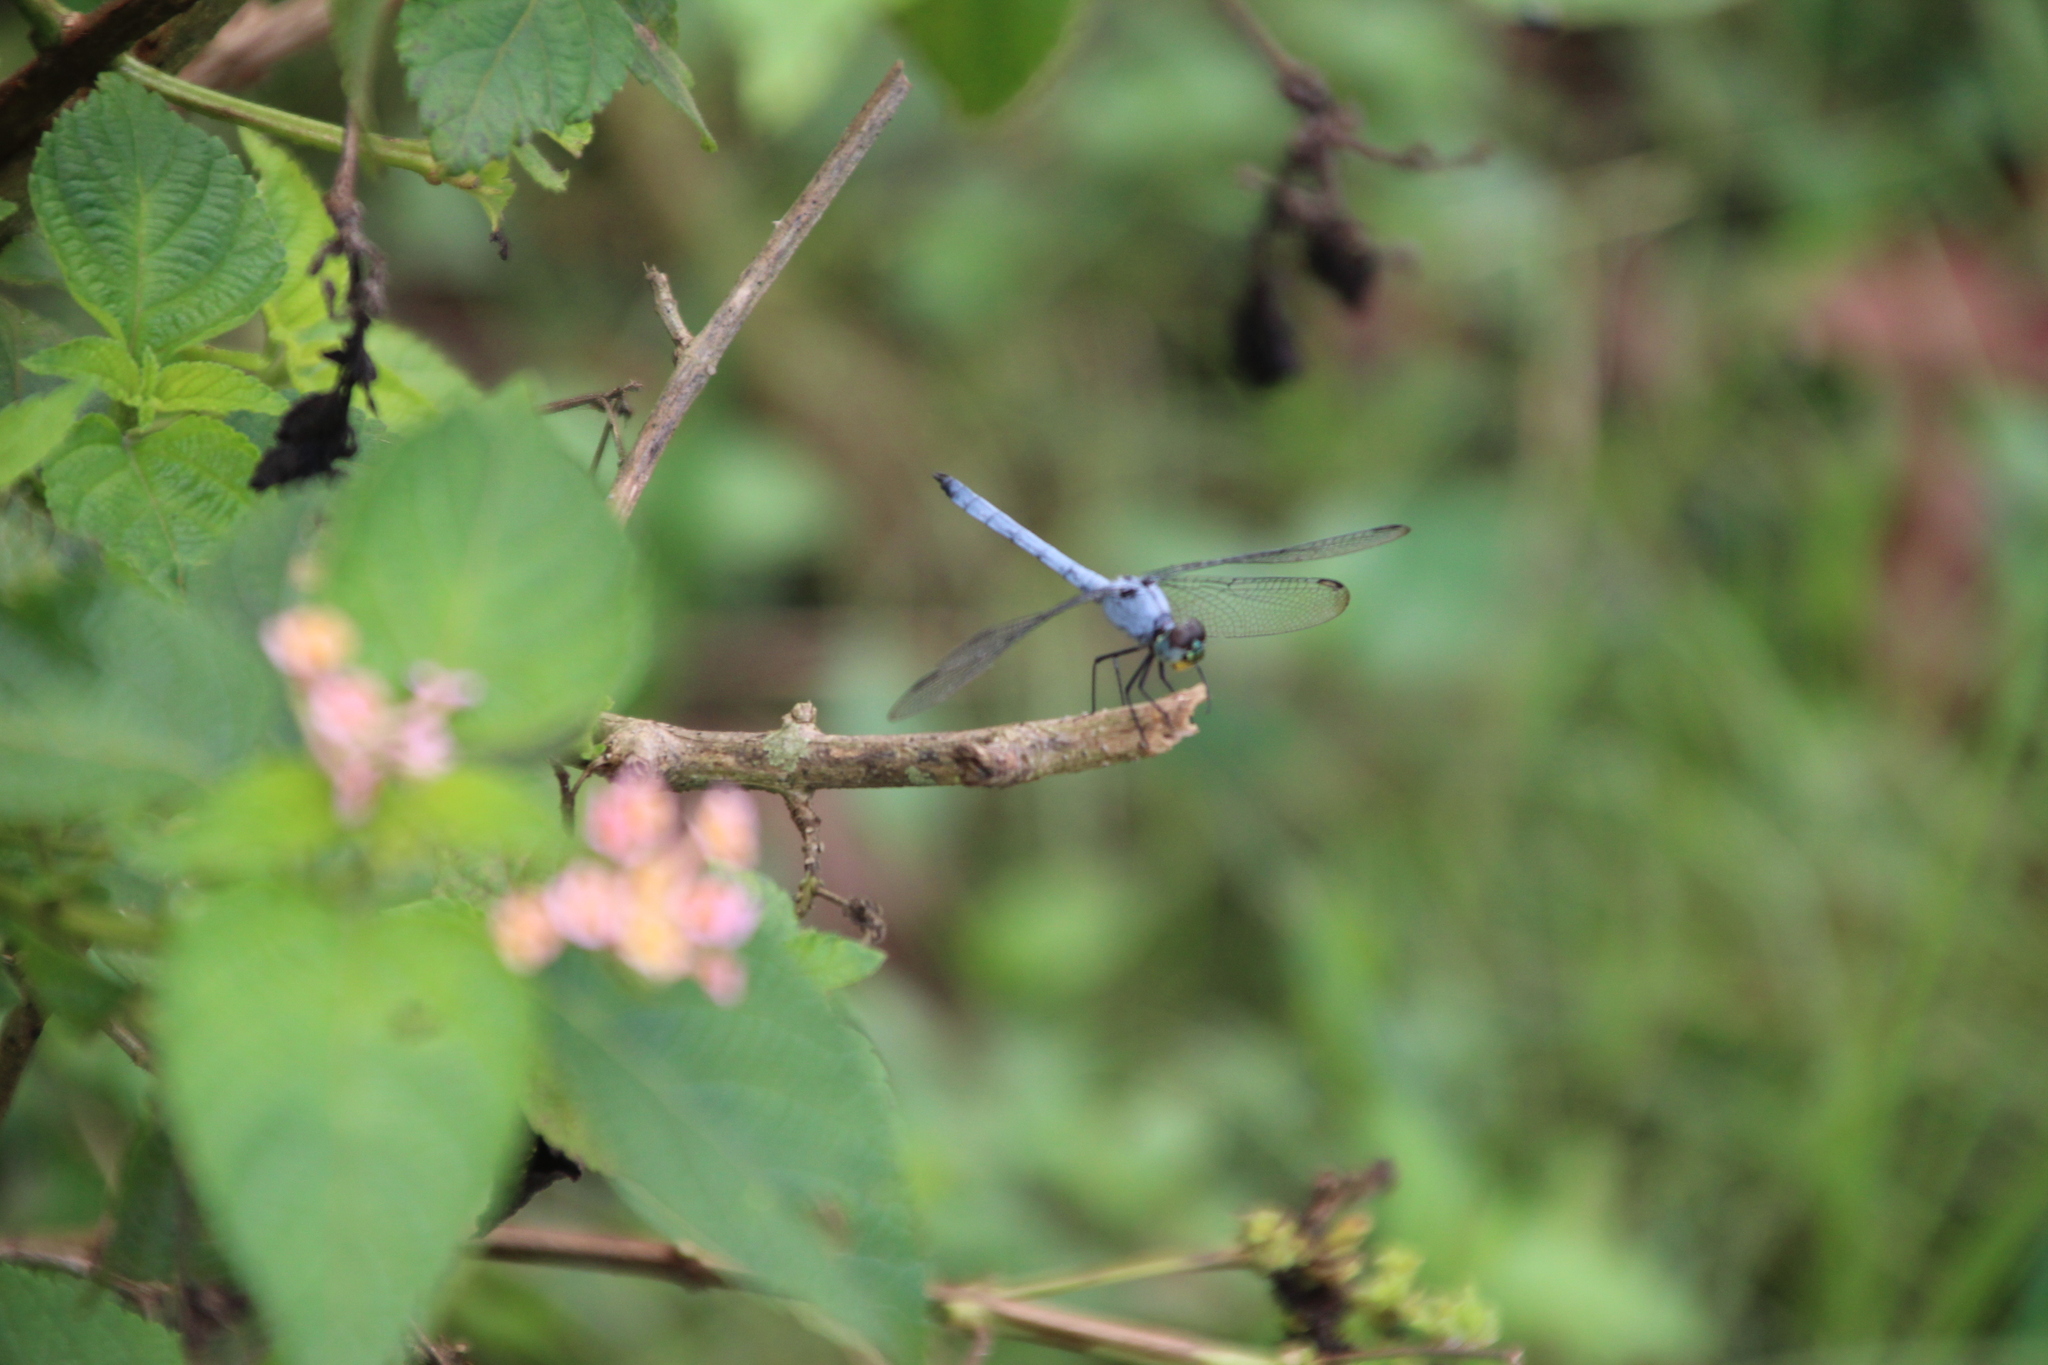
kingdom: Animalia
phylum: Arthropoda
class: Insecta
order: Odonata
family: Libellulidae
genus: Chalcostephia
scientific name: Chalcostephia flavifrons
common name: Inspector
